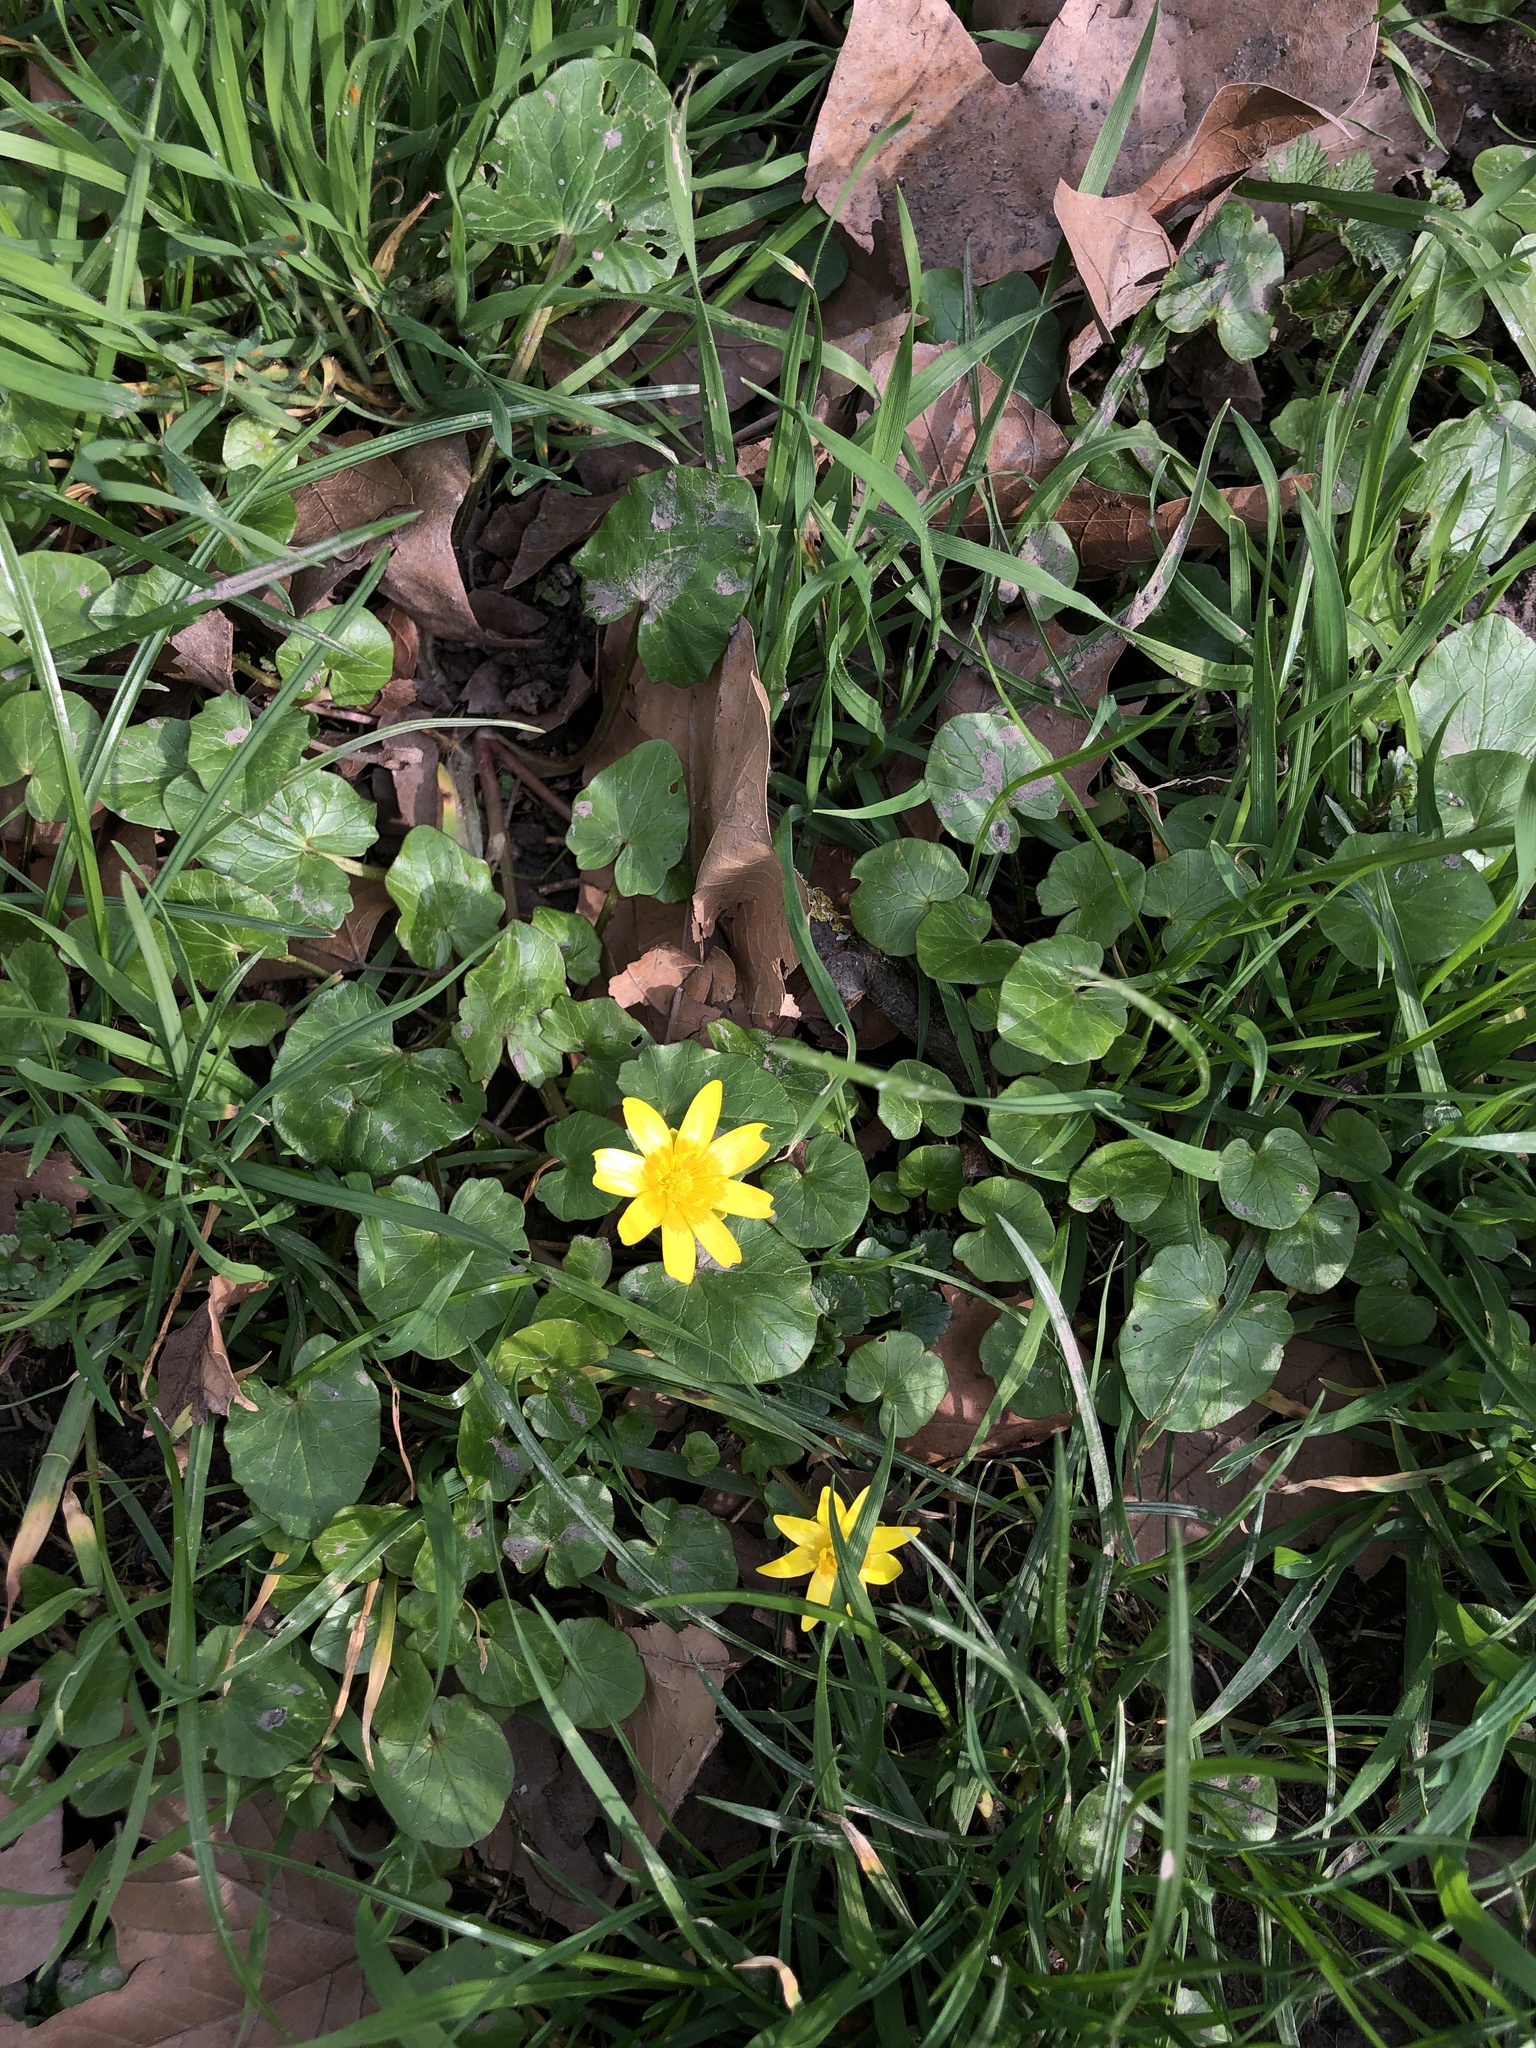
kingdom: Plantae
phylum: Tracheophyta
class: Magnoliopsida
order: Ranunculales
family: Ranunculaceae
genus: Ficaria
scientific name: Ficaria verna
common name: Lesser celandine
